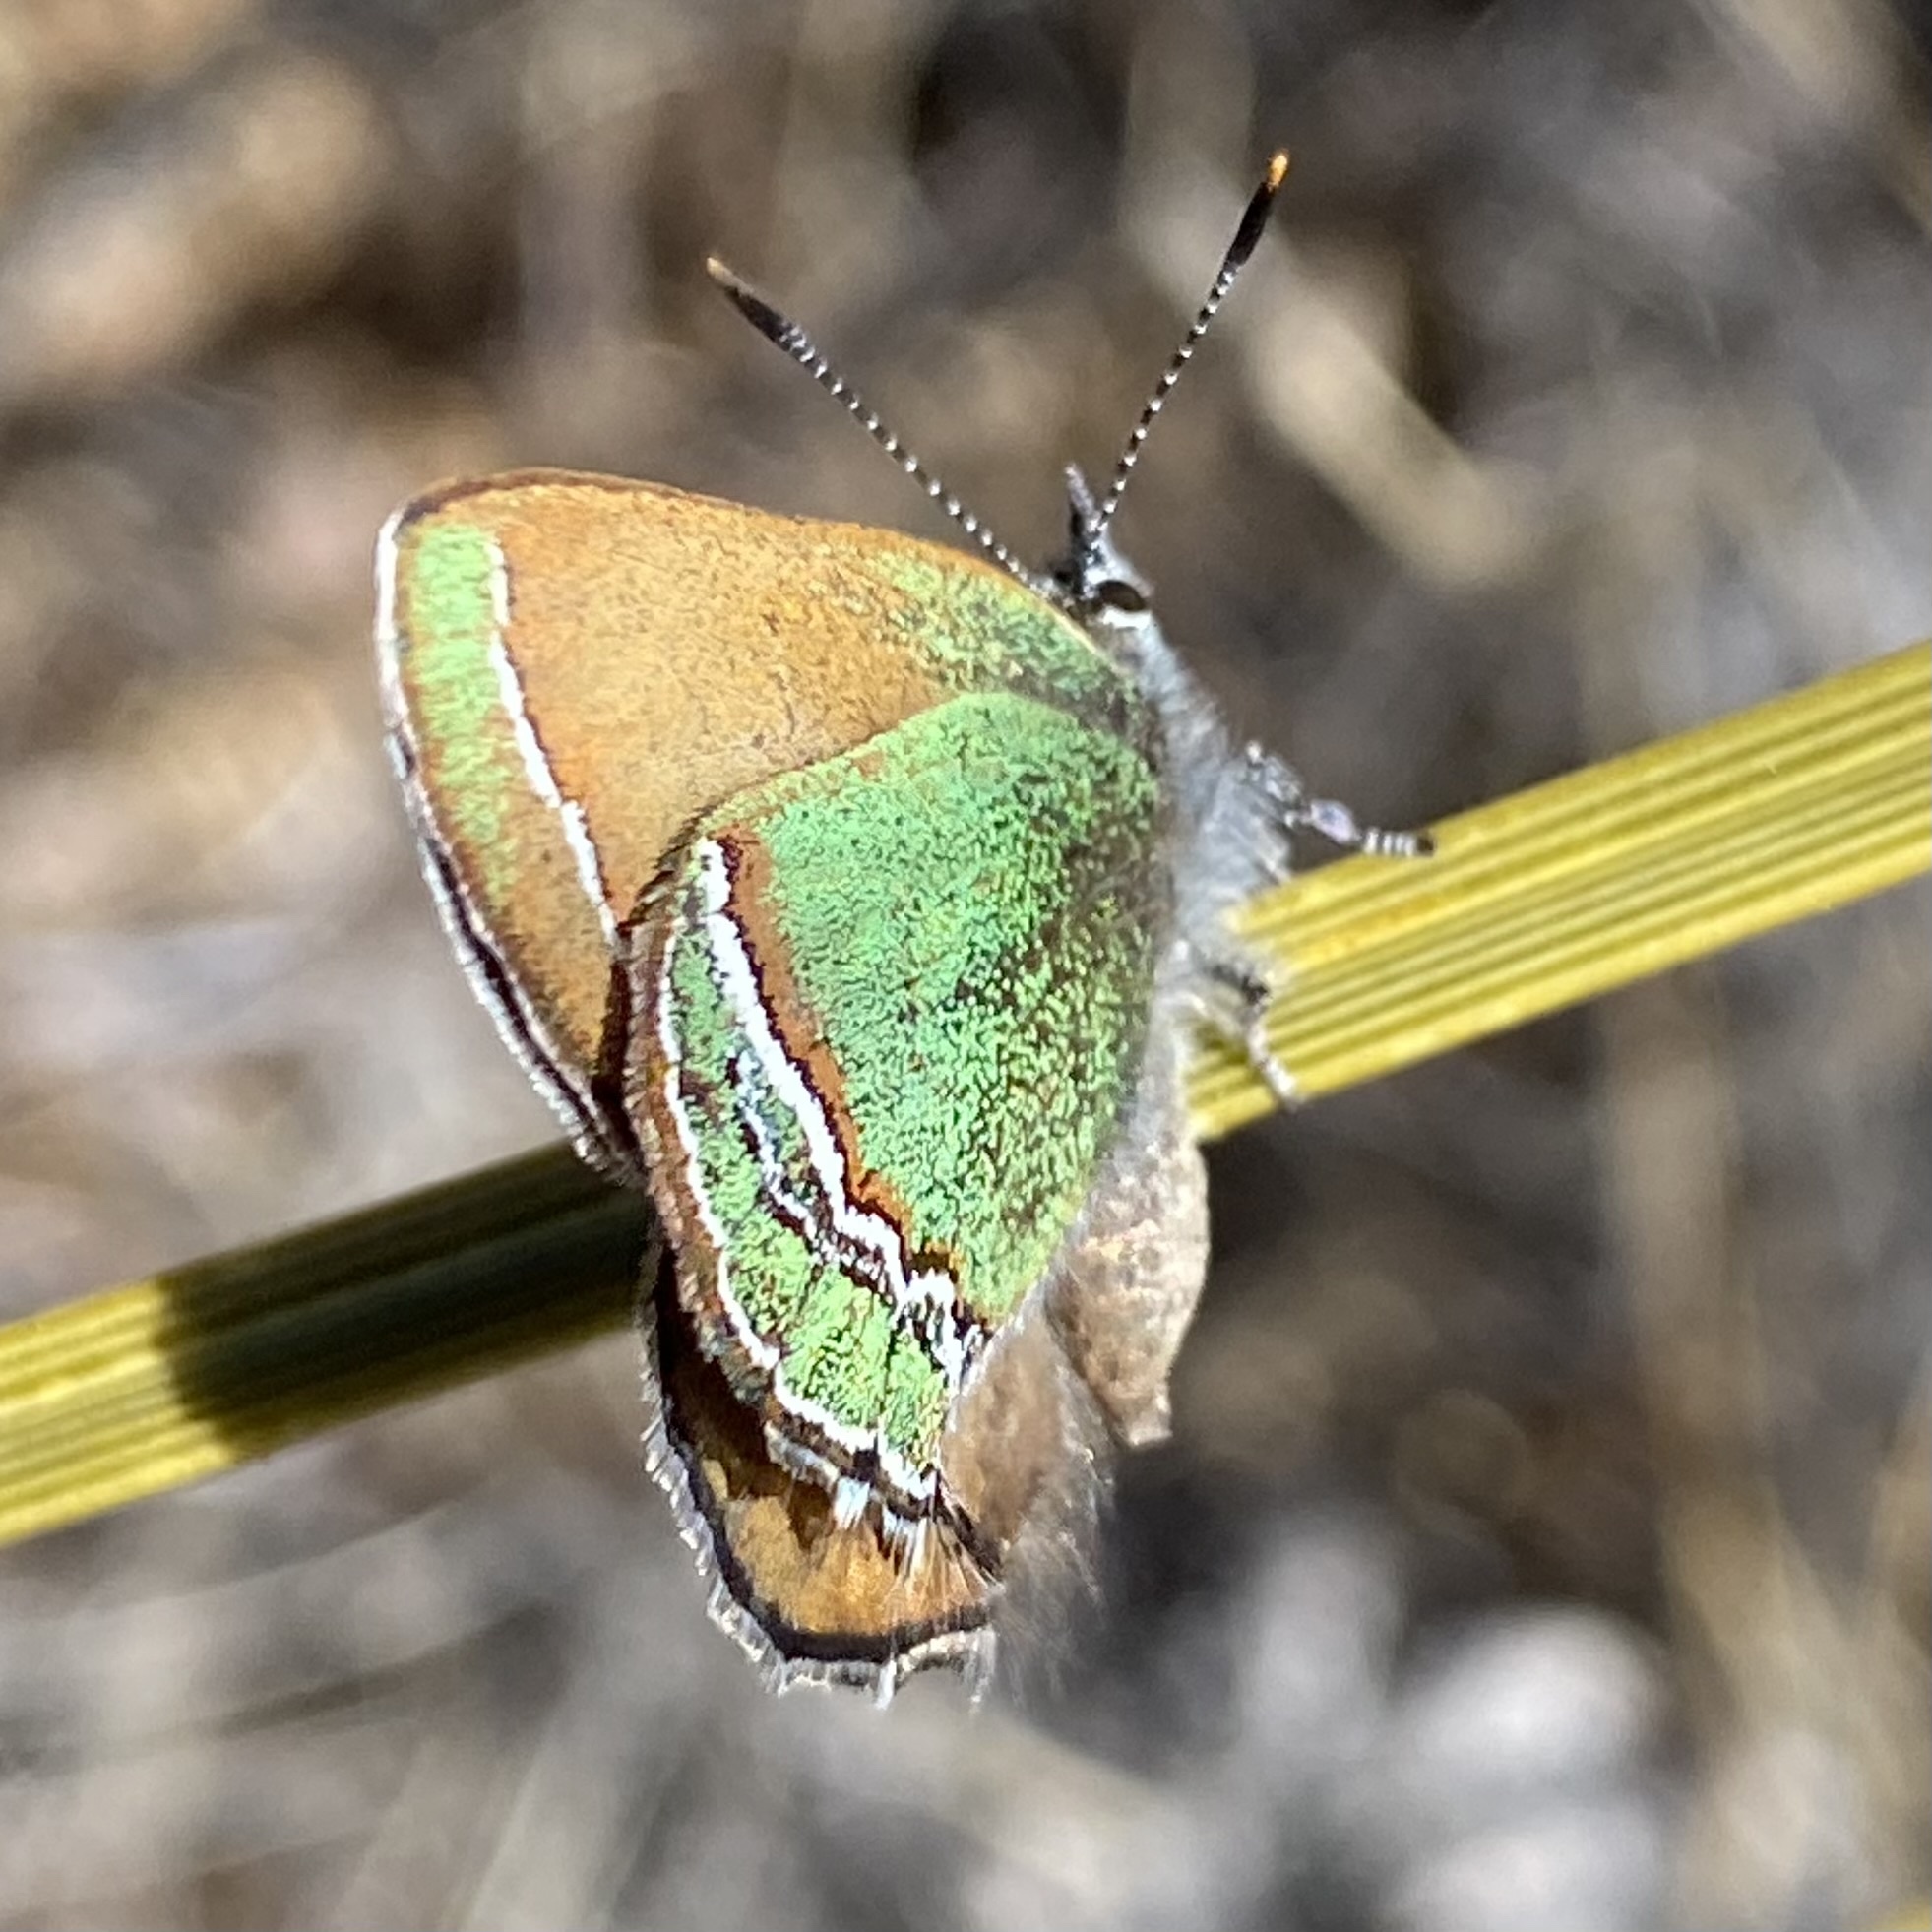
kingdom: Animalia
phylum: Arthropoda
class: Insecta
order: Lepidoptera
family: Lycaenidae
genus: Sandia
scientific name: Sandia mcfarlandi
